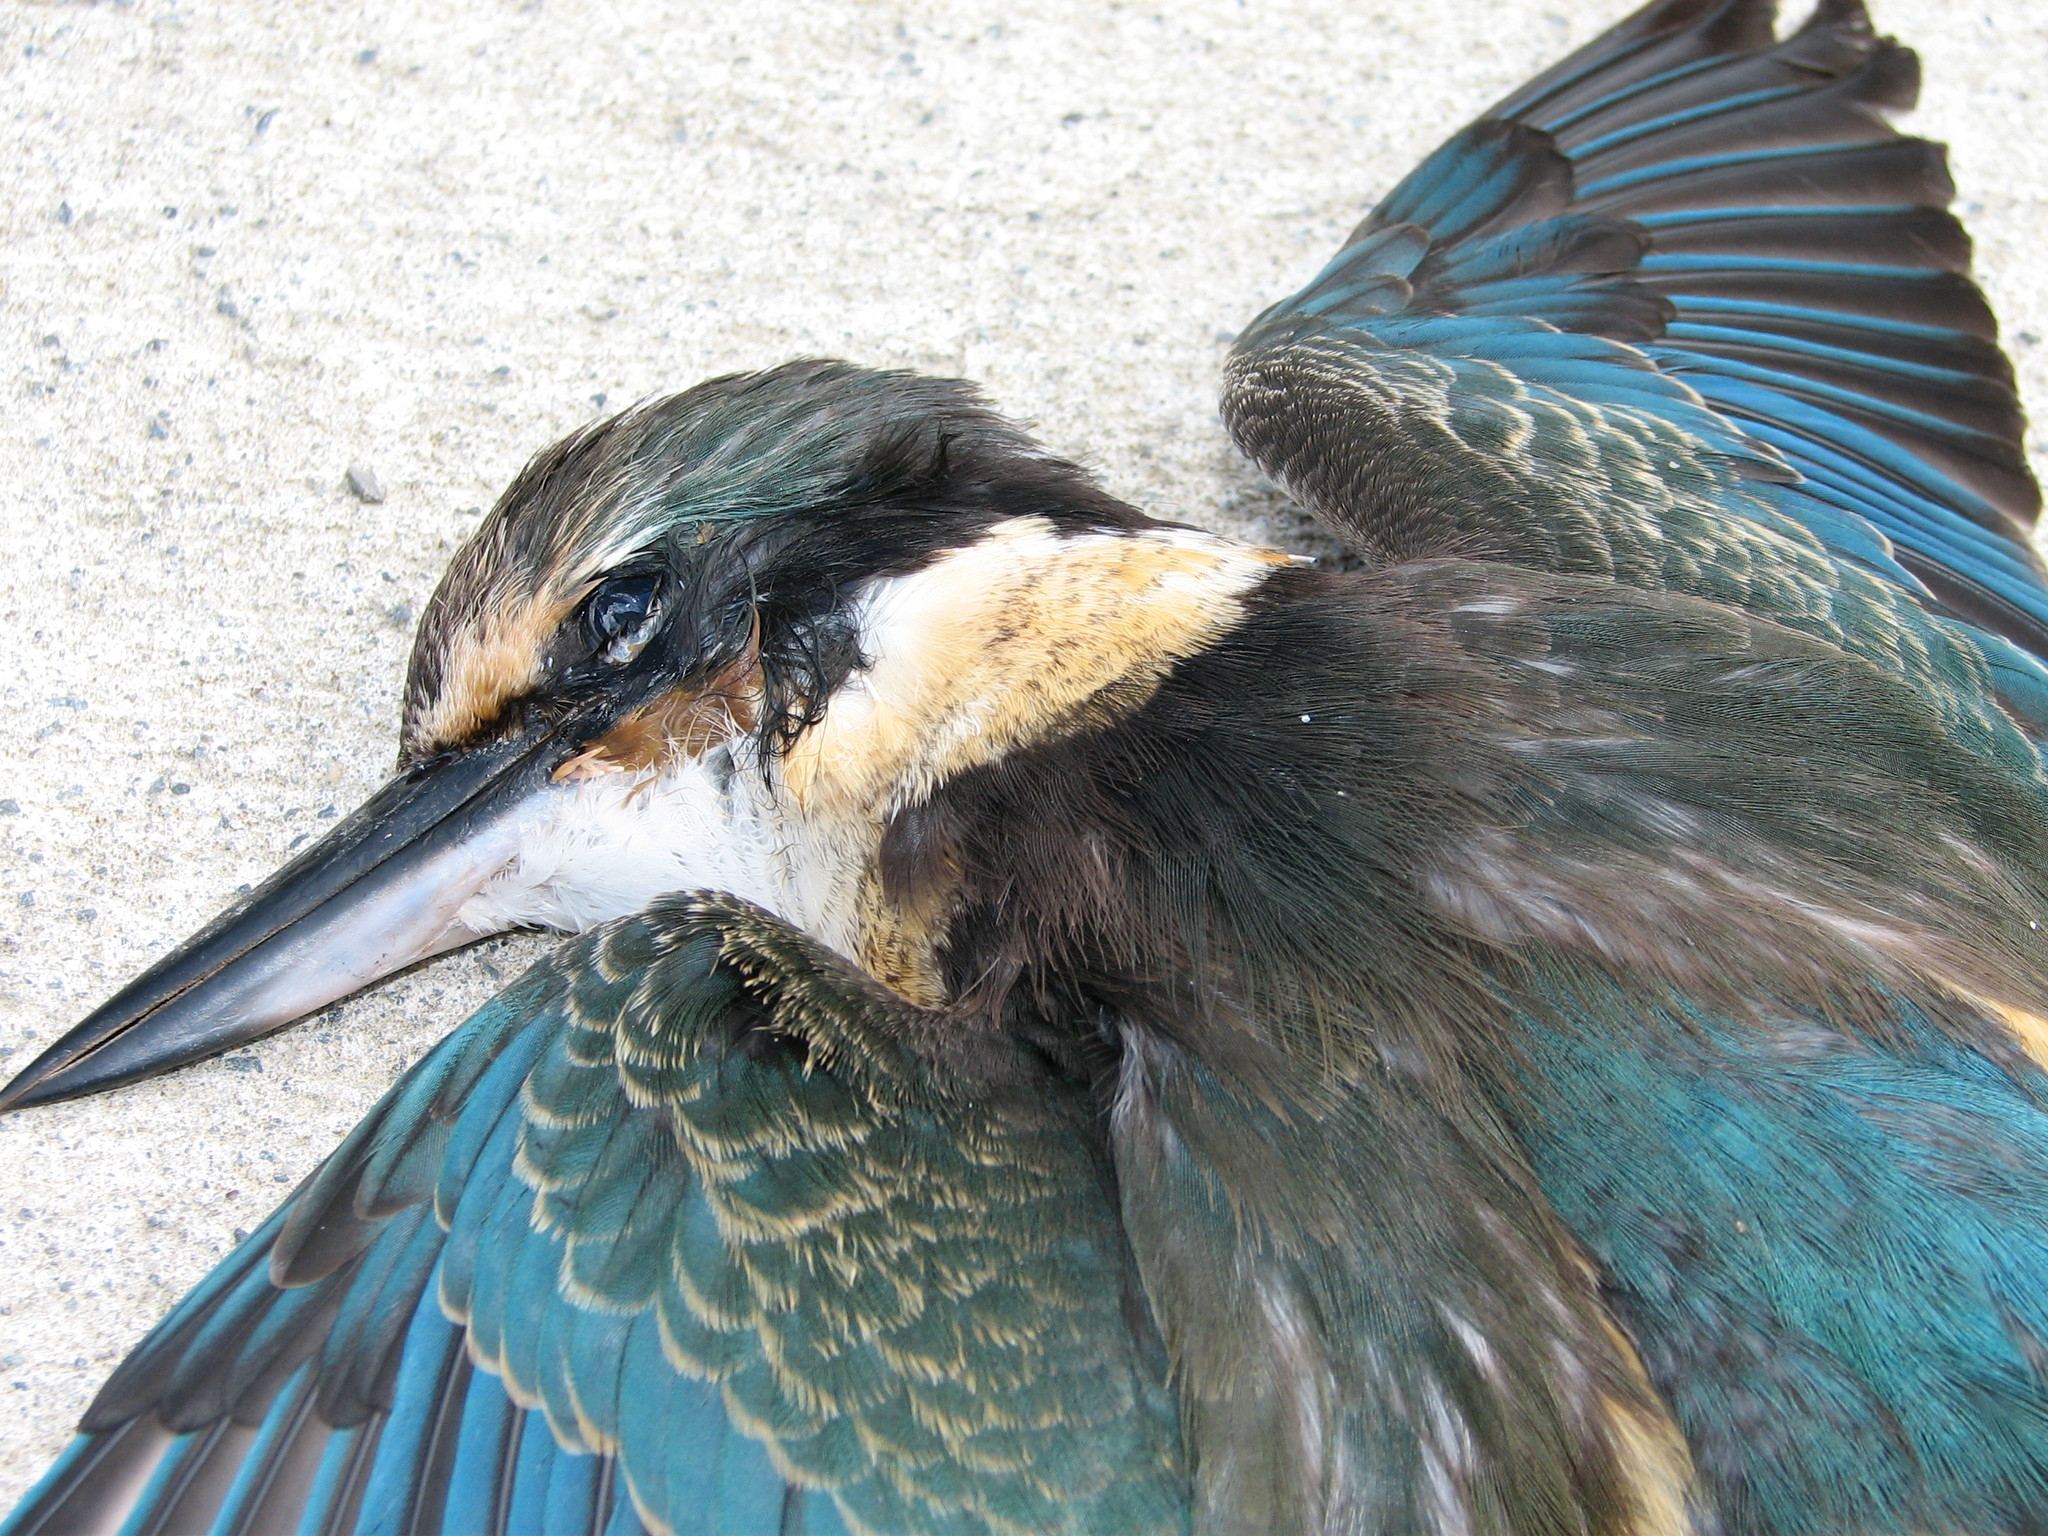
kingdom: Animalia
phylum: Chordata
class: Aves
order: Coraciiformes
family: Alcedinidae
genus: Todiramphus
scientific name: Todiramphus sanctus
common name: Sacred kingfisher
